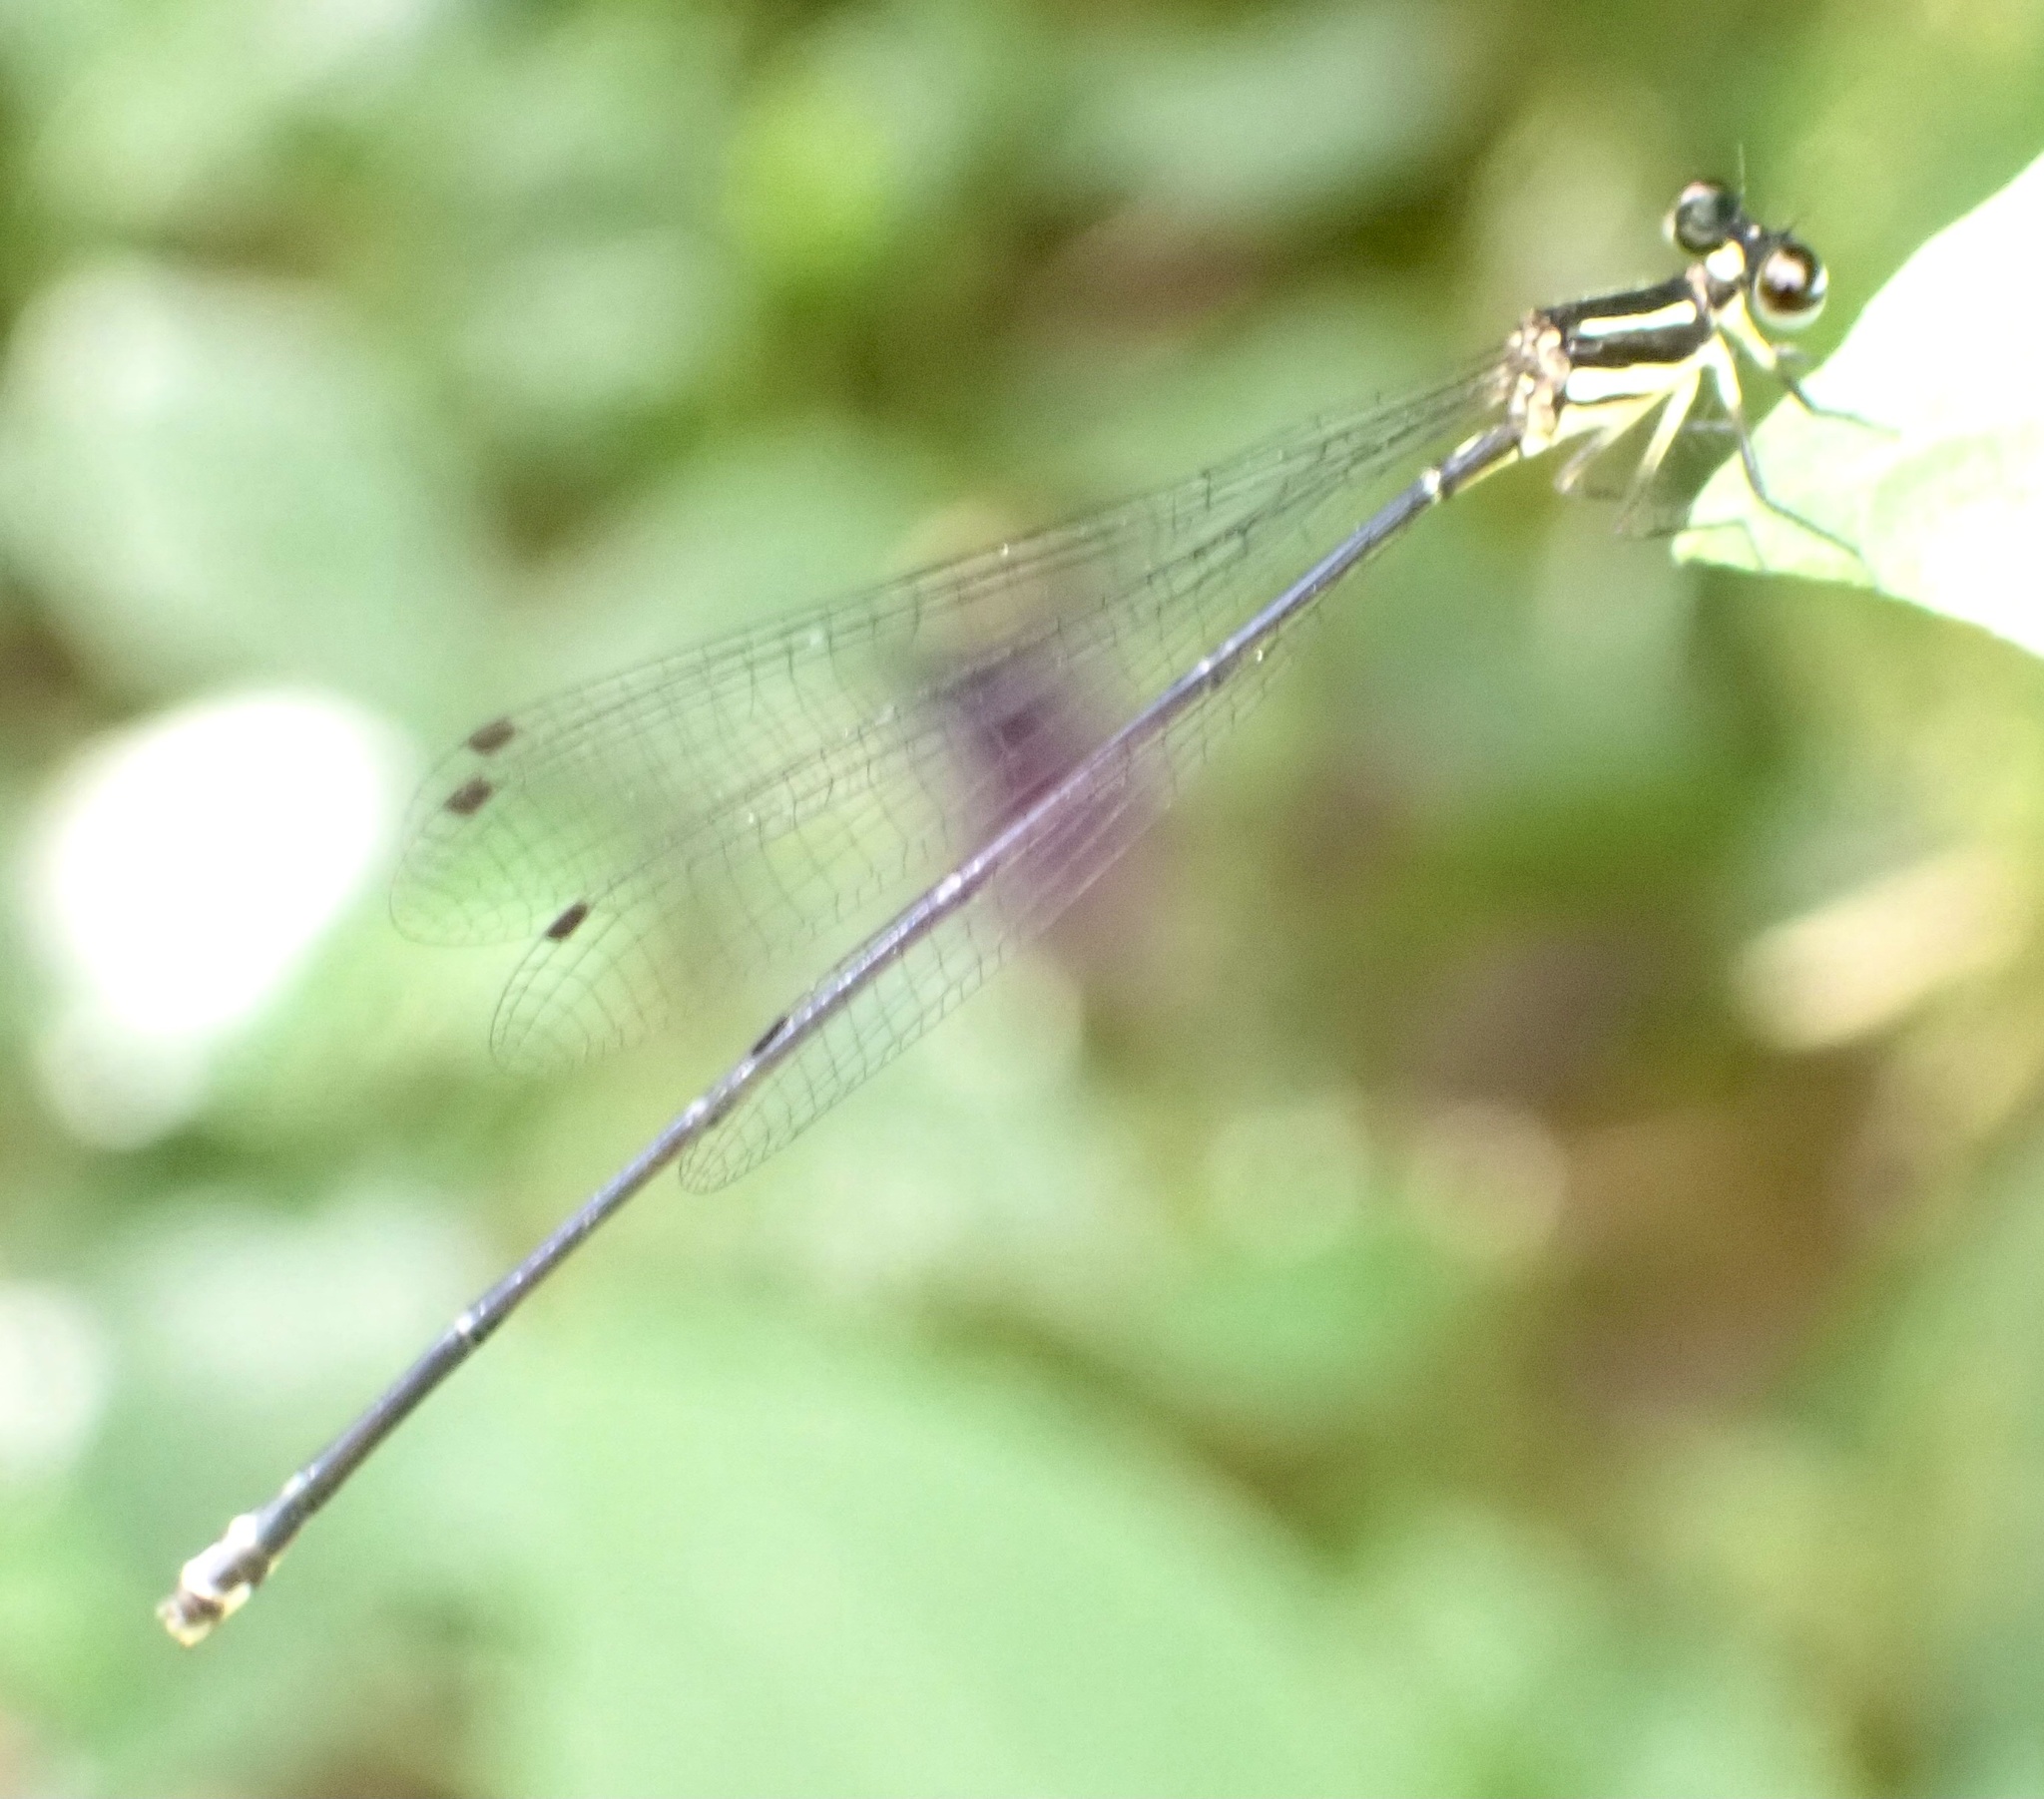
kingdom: Animalia
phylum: Arthropoda
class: Insecta
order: Odonata
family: Platycnemididae
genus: Allocnemis
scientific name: Allocnemis elongata
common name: Orange yellowwing
